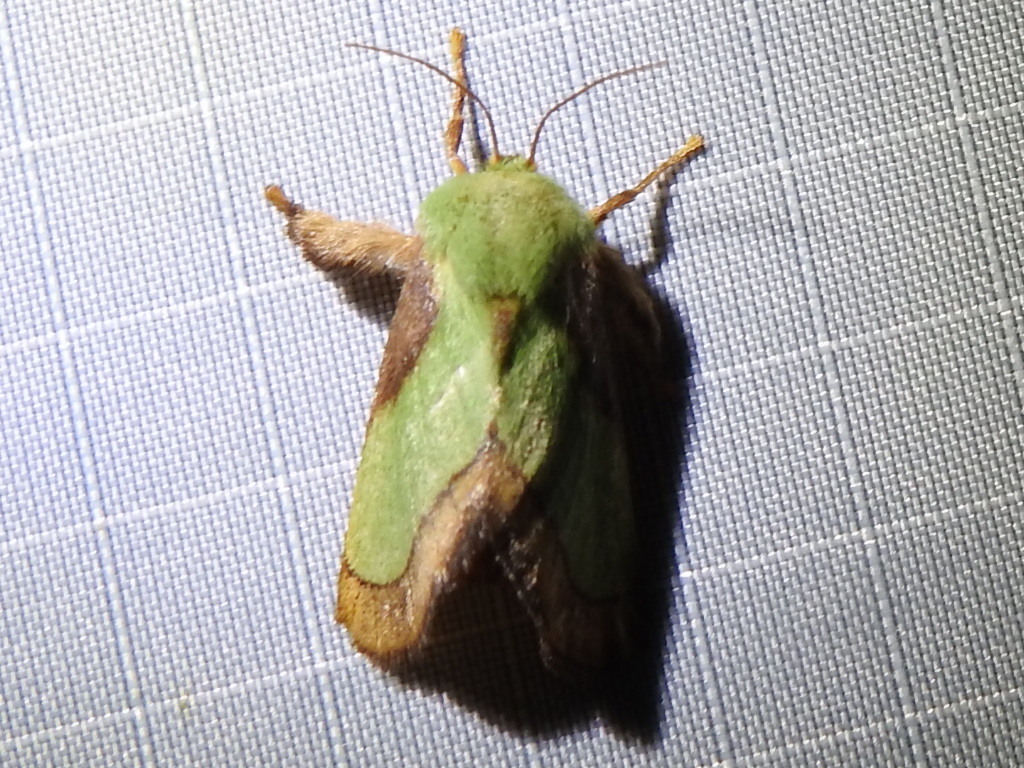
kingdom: Animalia
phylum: Arthropoda
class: Insecta
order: Lepidoptera
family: Limacodidae
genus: Parasa
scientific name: Parasa chloris
